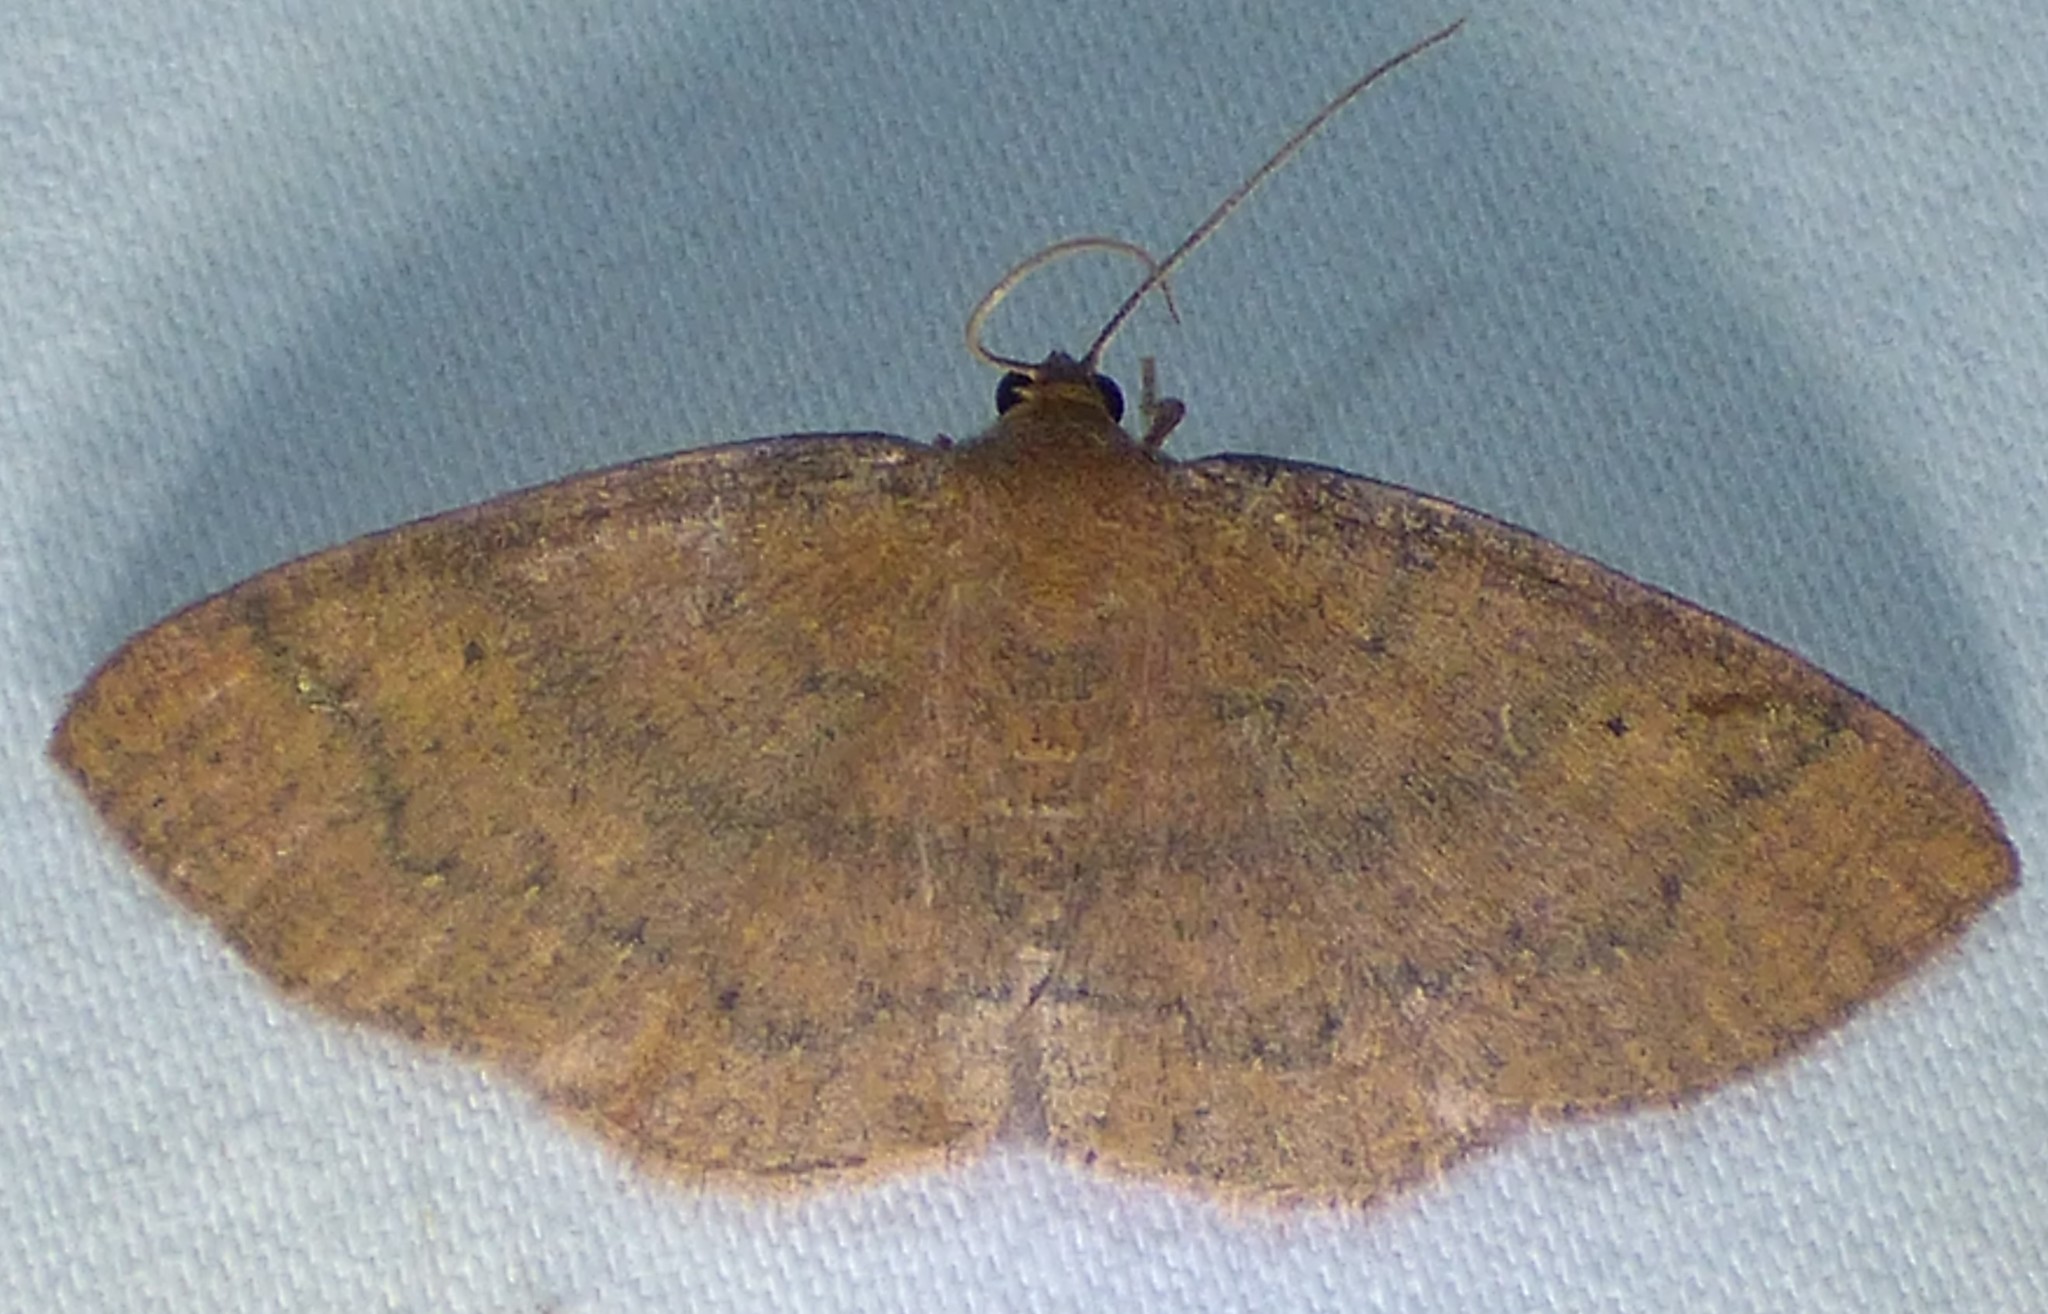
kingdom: Animalia
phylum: Arthropoda
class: Insecta
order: Lepidoptera
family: Geometridae
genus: Ilexia
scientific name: Ilexia intractata
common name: Black-dotted ruddy moth
